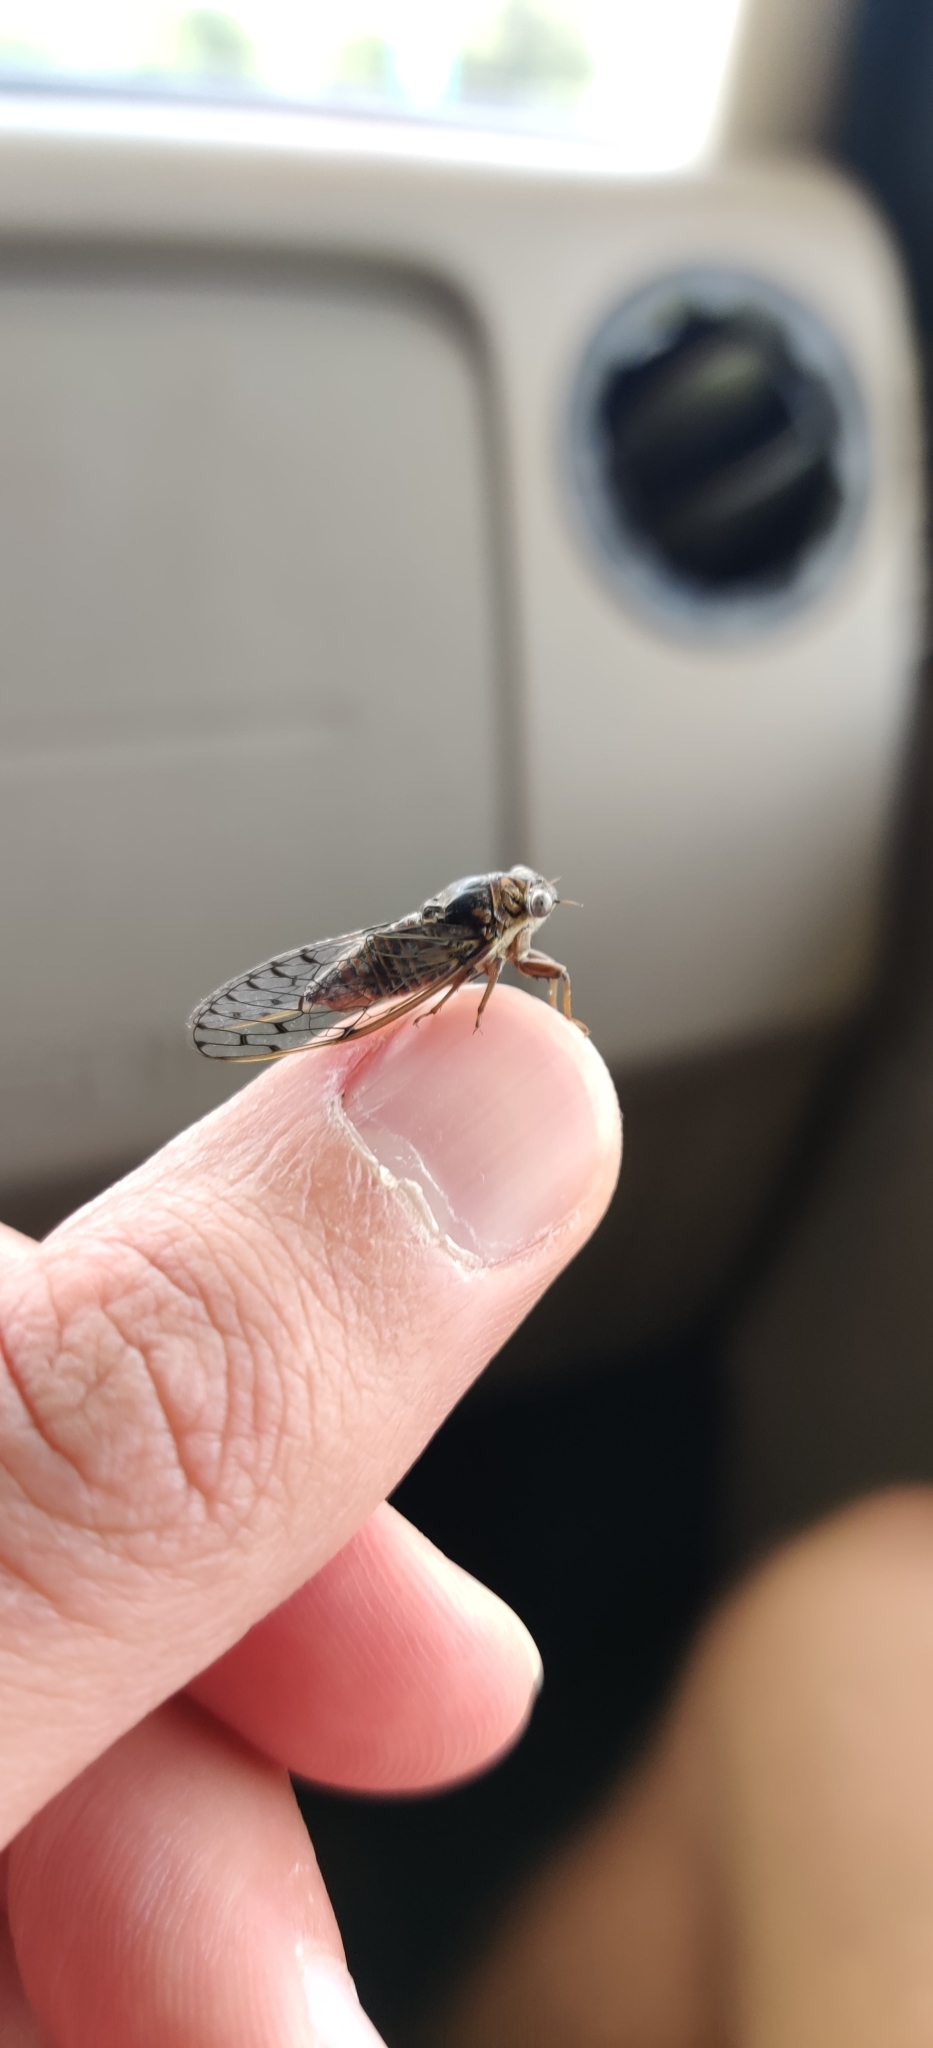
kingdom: Animalia
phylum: Arthropoda
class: Insecta
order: Hemiptera
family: Cicadidae
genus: Pacarina
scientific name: Pacarina puella
